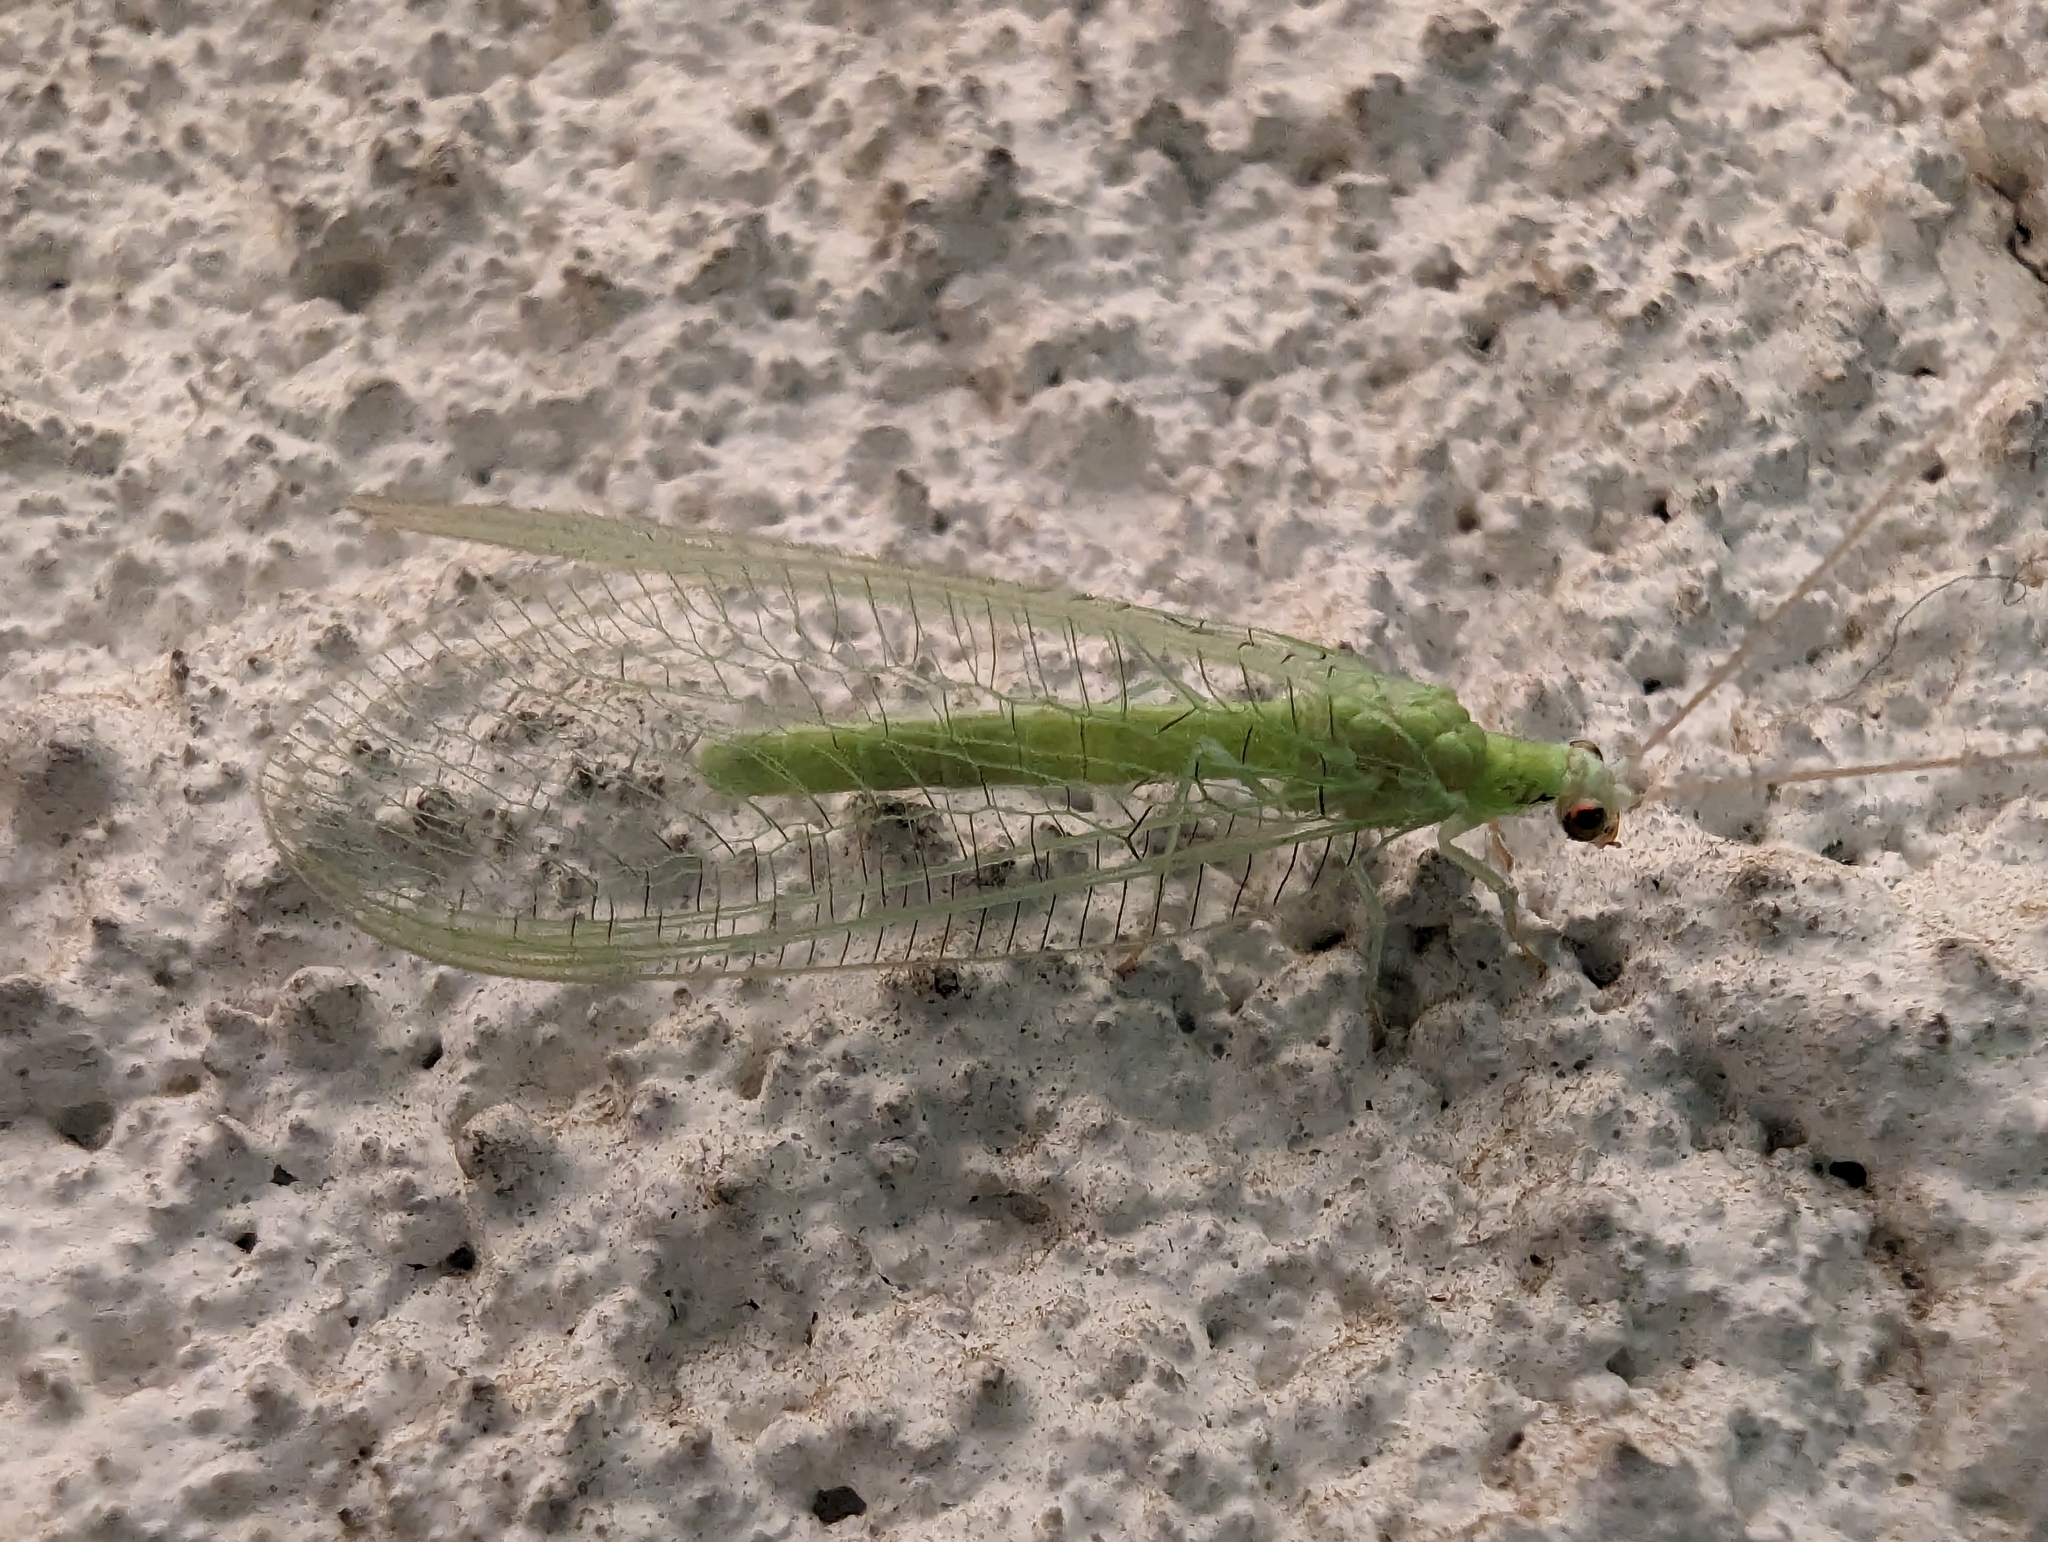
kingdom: Animalia
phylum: Arthropoda
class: Insecta
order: Neuroptera
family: Chrysopidae
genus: Chrysopa
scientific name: Chrysopa nigricornis
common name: Black-horned green lacewing
